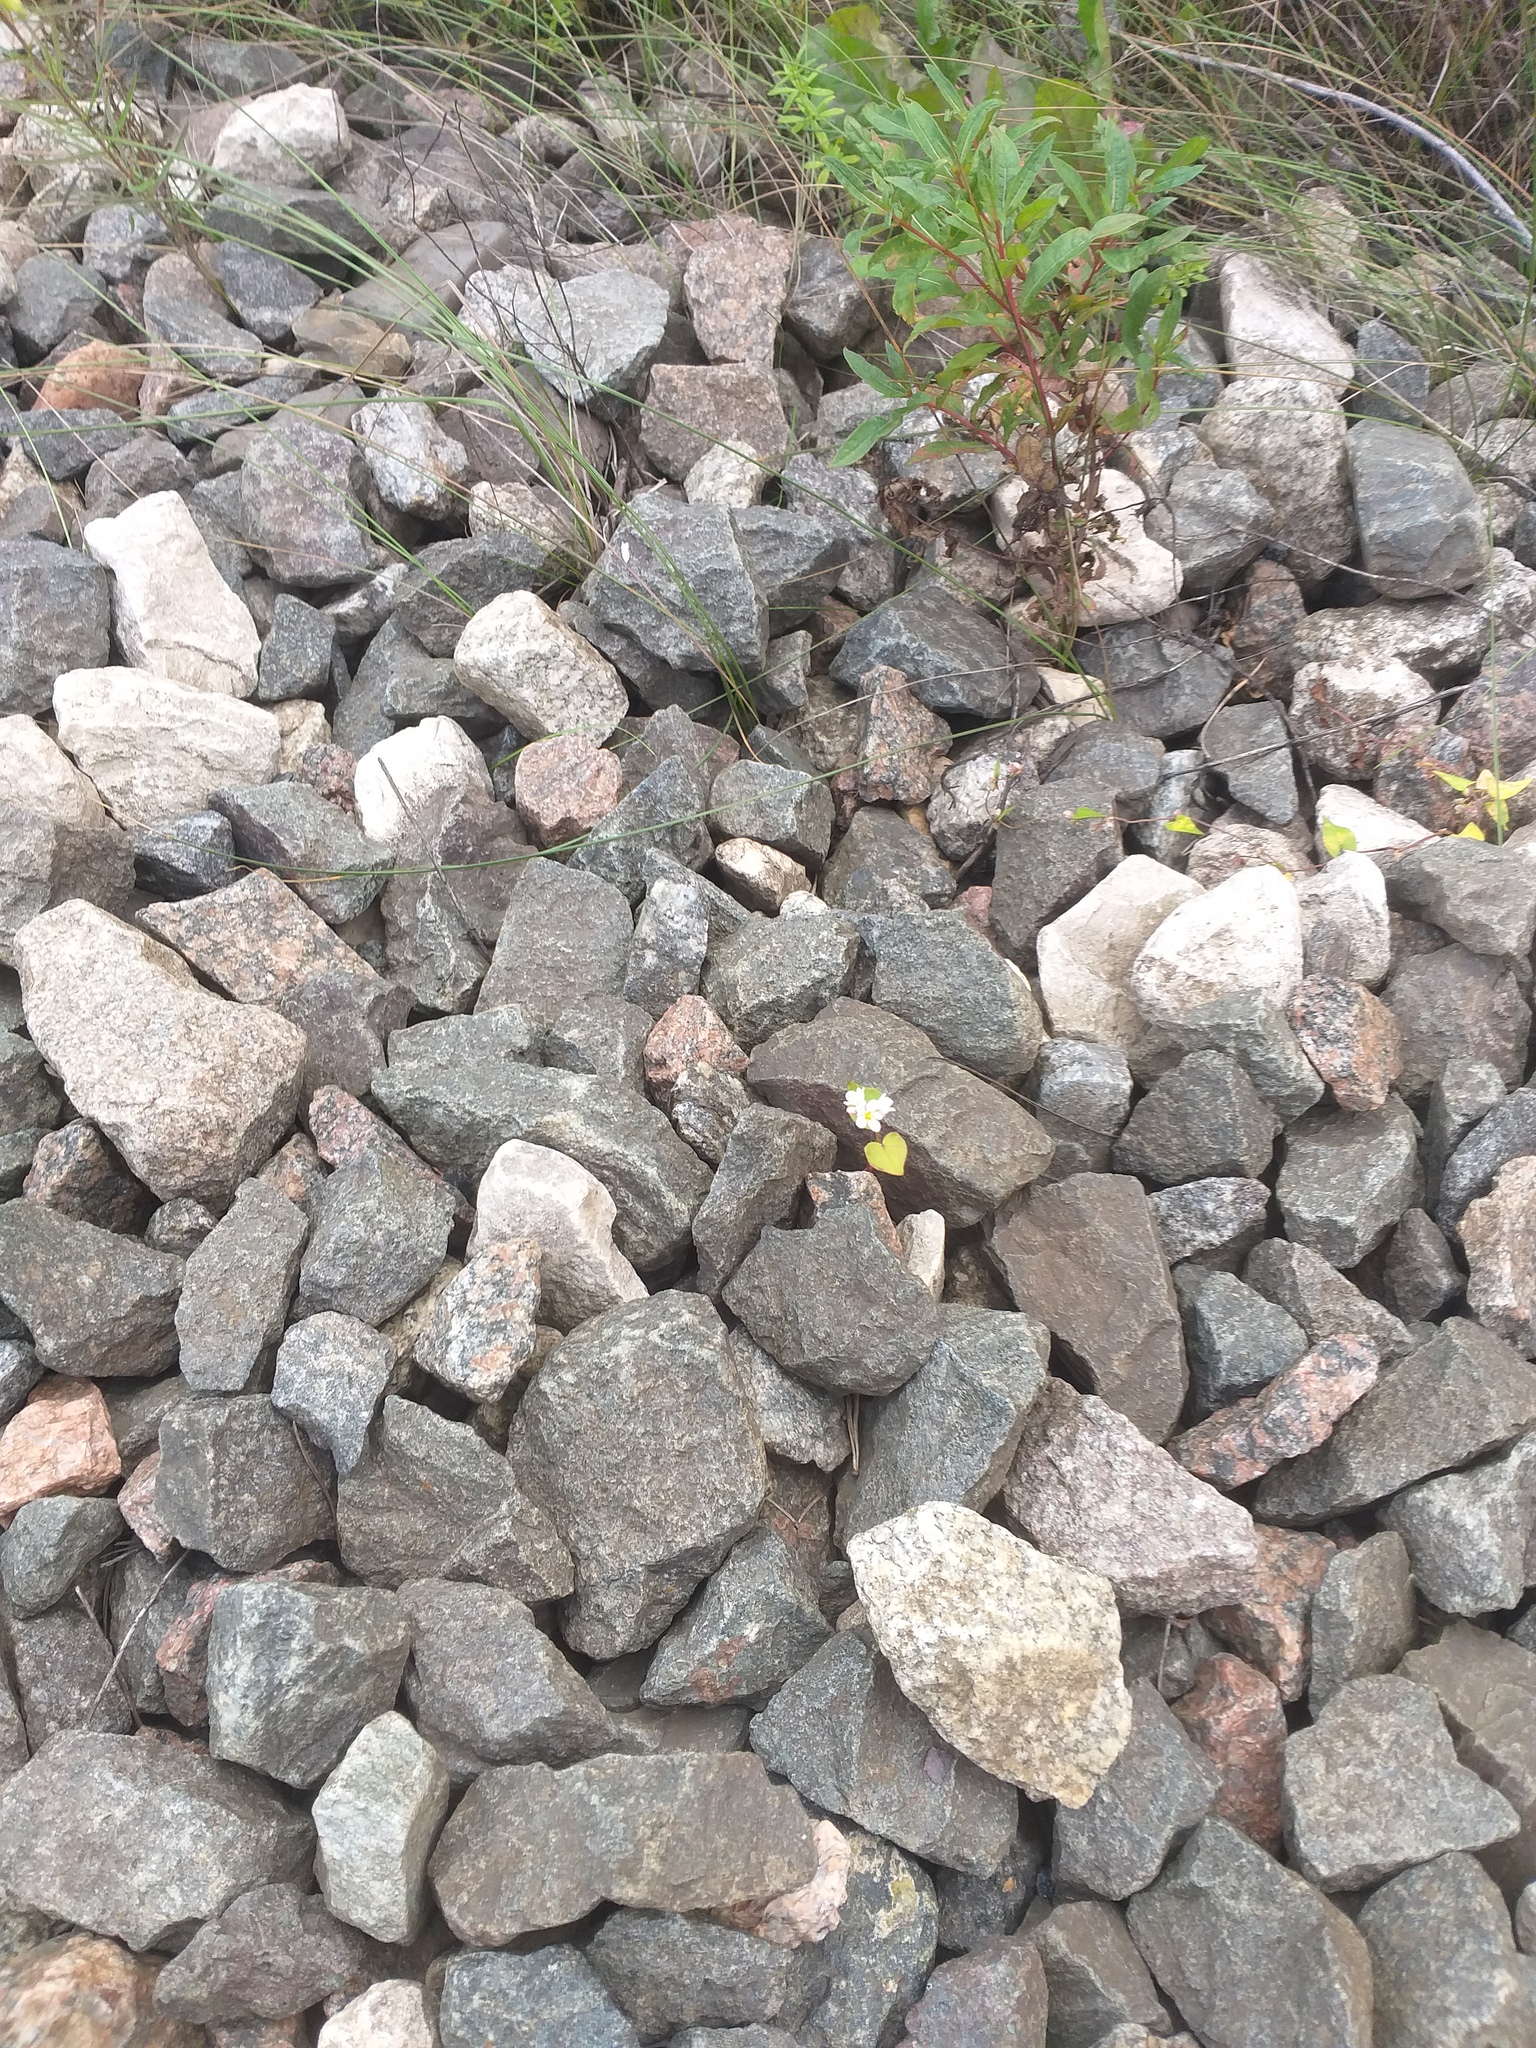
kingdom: Plantae
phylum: Tracheophyta
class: Magnoliopsida
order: Caryophyllales
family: Polygonaceae
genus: Fagopyrum
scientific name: Fagopyrum esculentum
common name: Buckwheat
